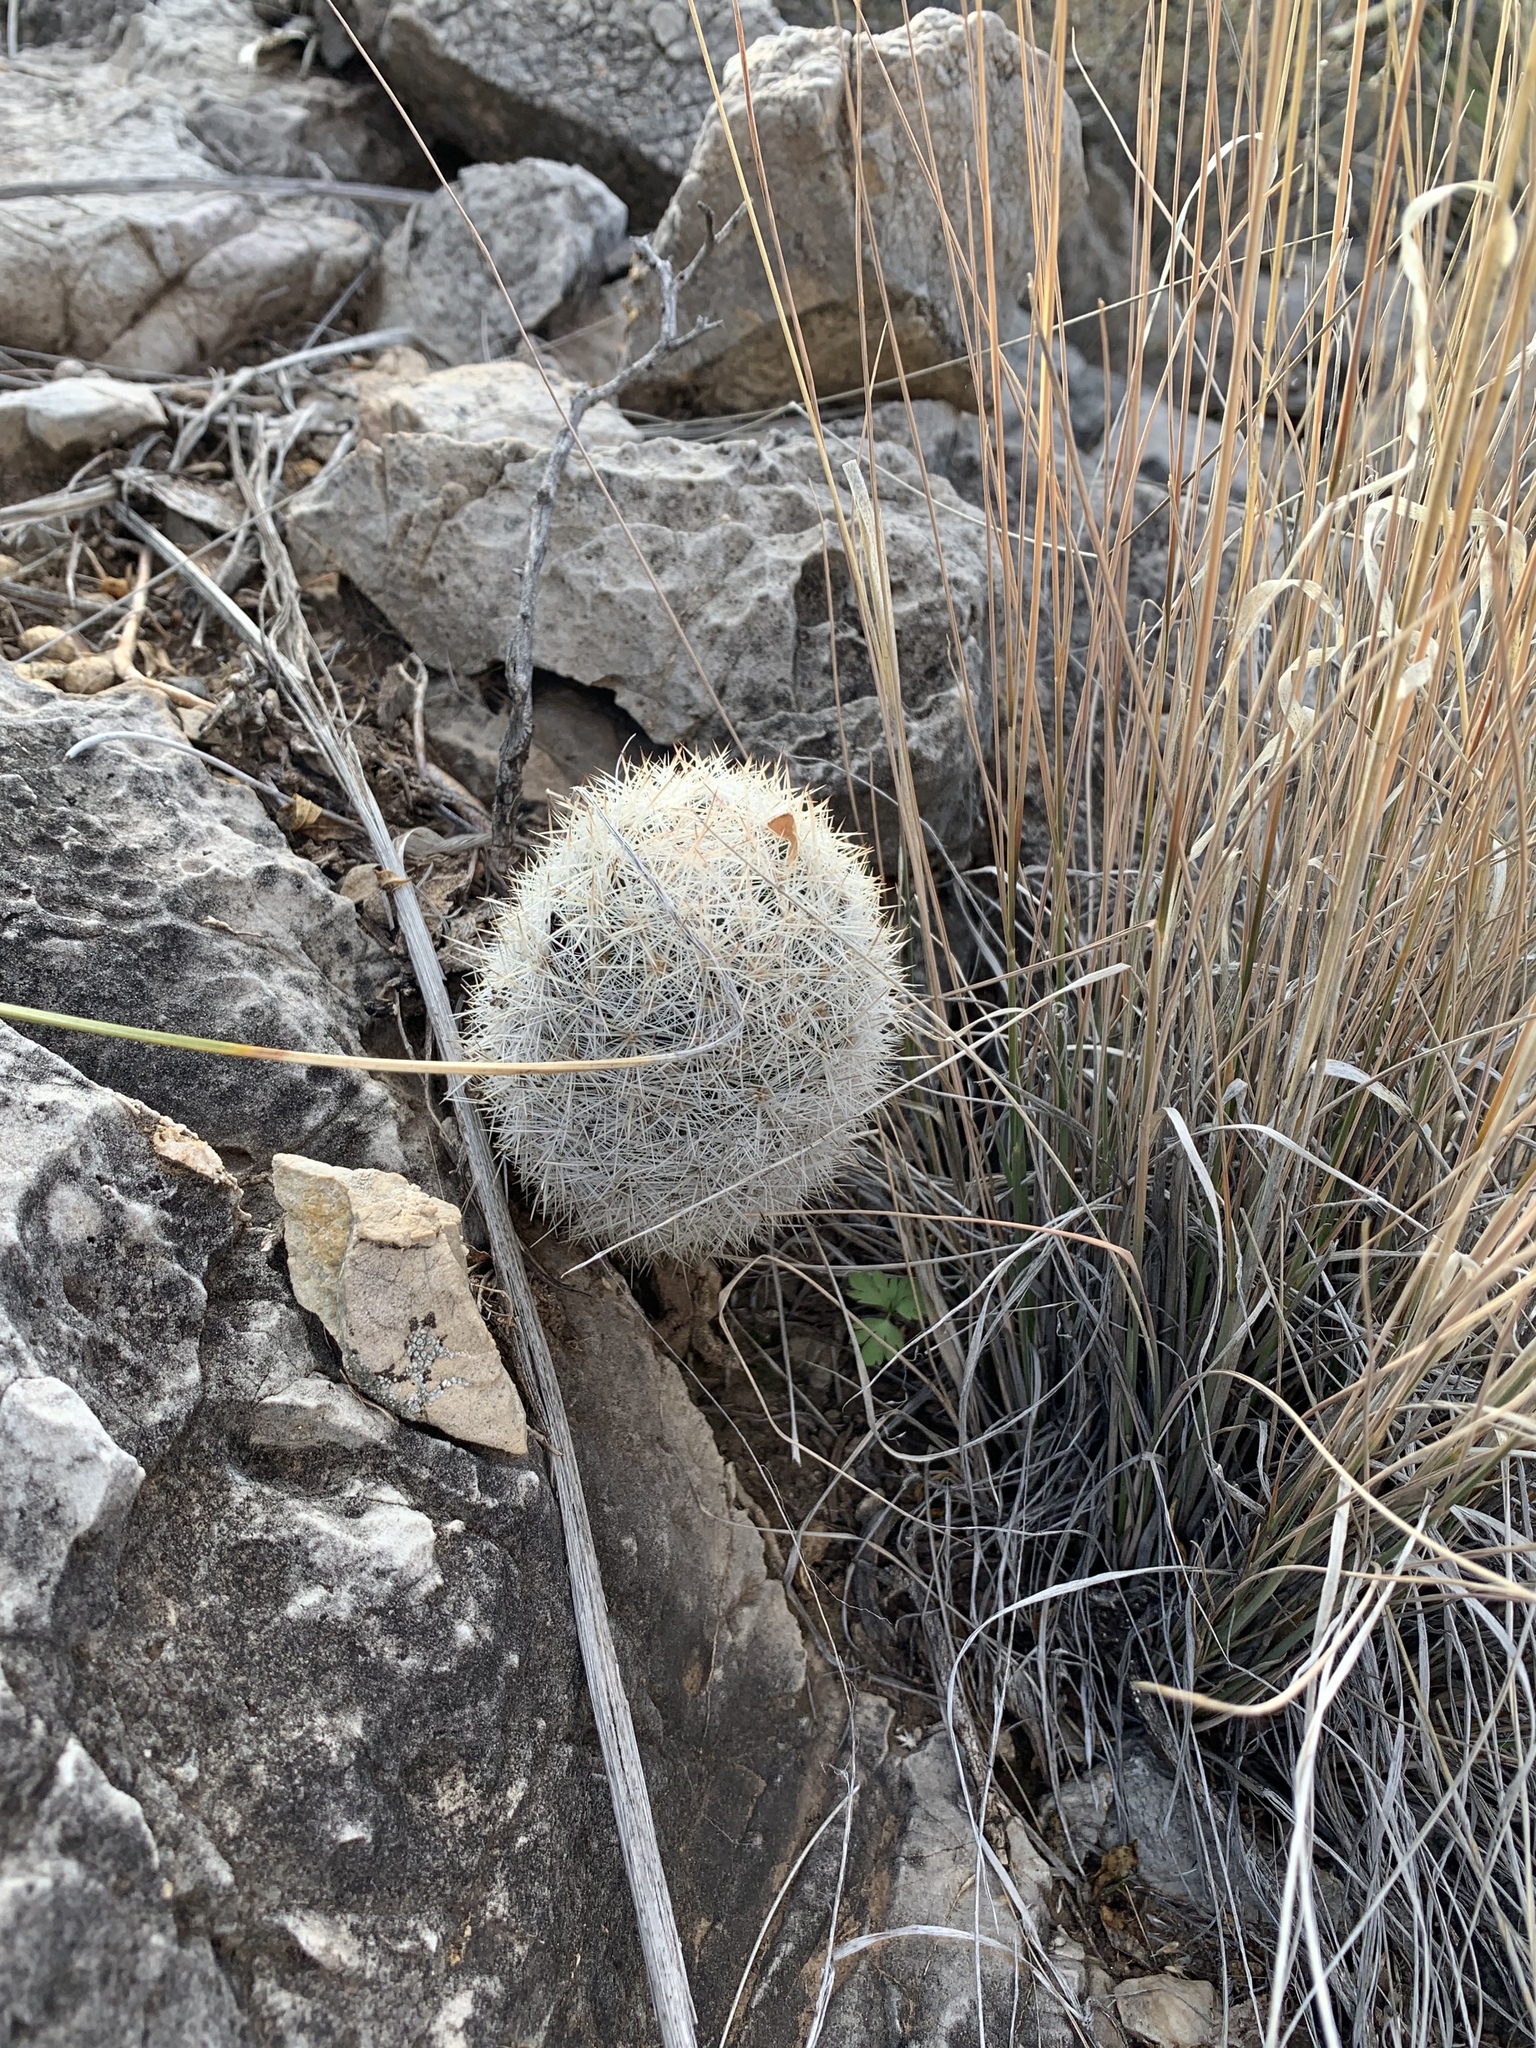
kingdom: Plantae
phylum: Tracheophyta
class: Magnoliopsida
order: Caryophyllales
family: Cactaceae
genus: Pelecyphora
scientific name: Pelecyphora sneedii
